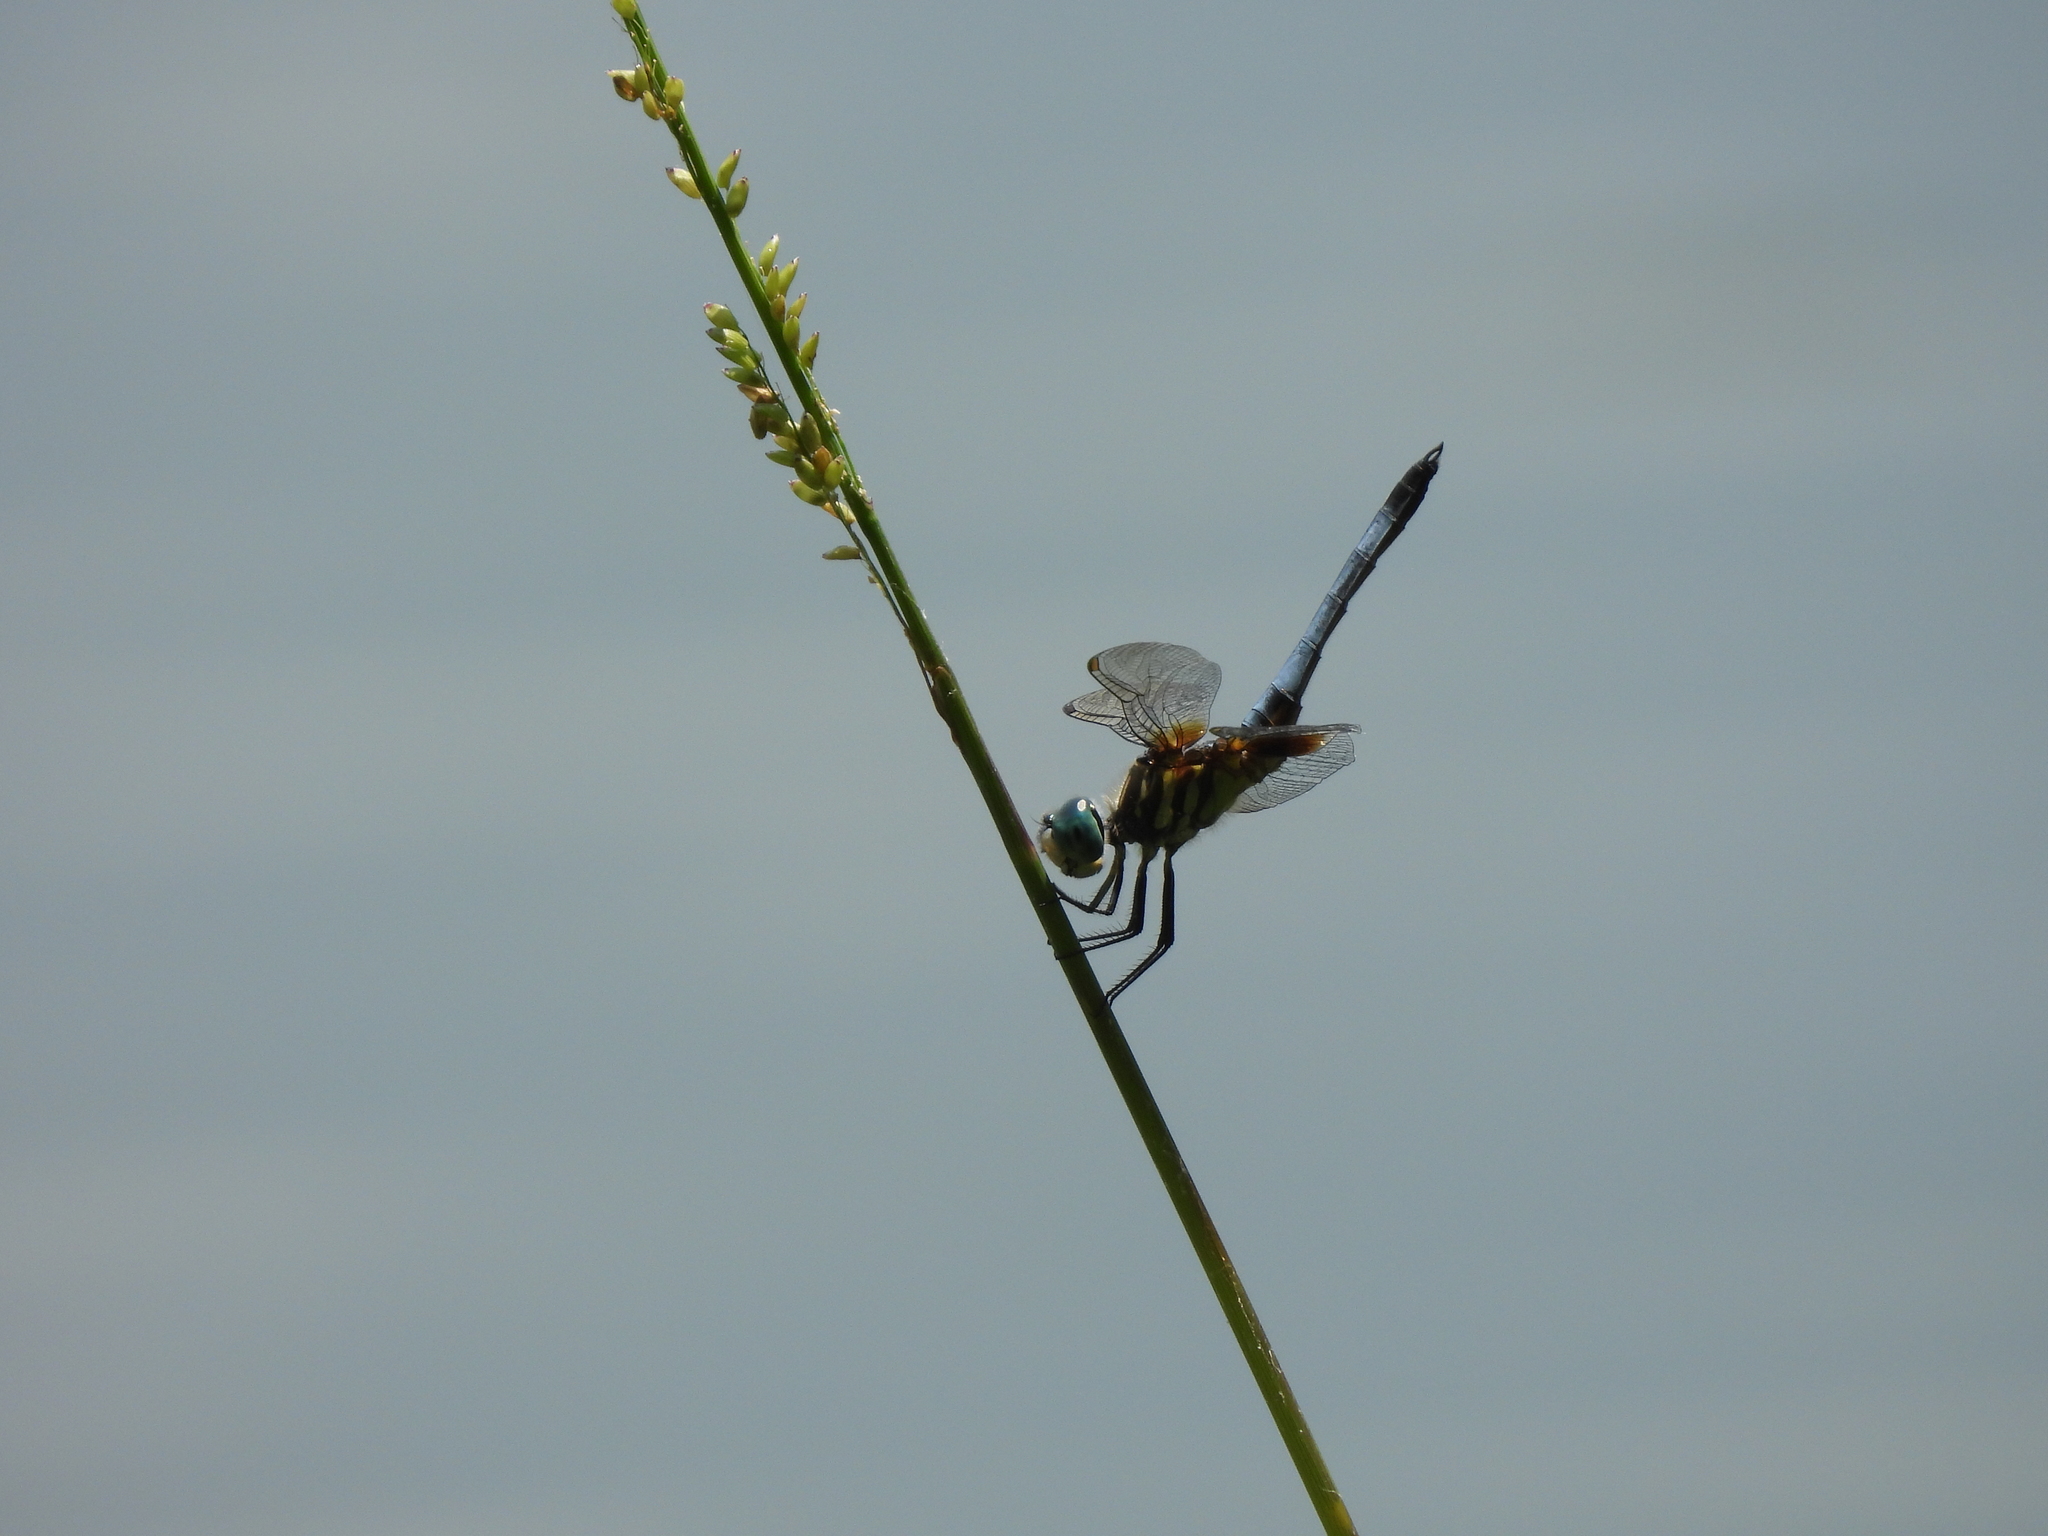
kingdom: Animalia
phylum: Arthropoda
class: Insecta
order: Odonata
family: Libellulidae
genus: Pachydiplax
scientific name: Pachydiplax longipennis
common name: Blue dasher
